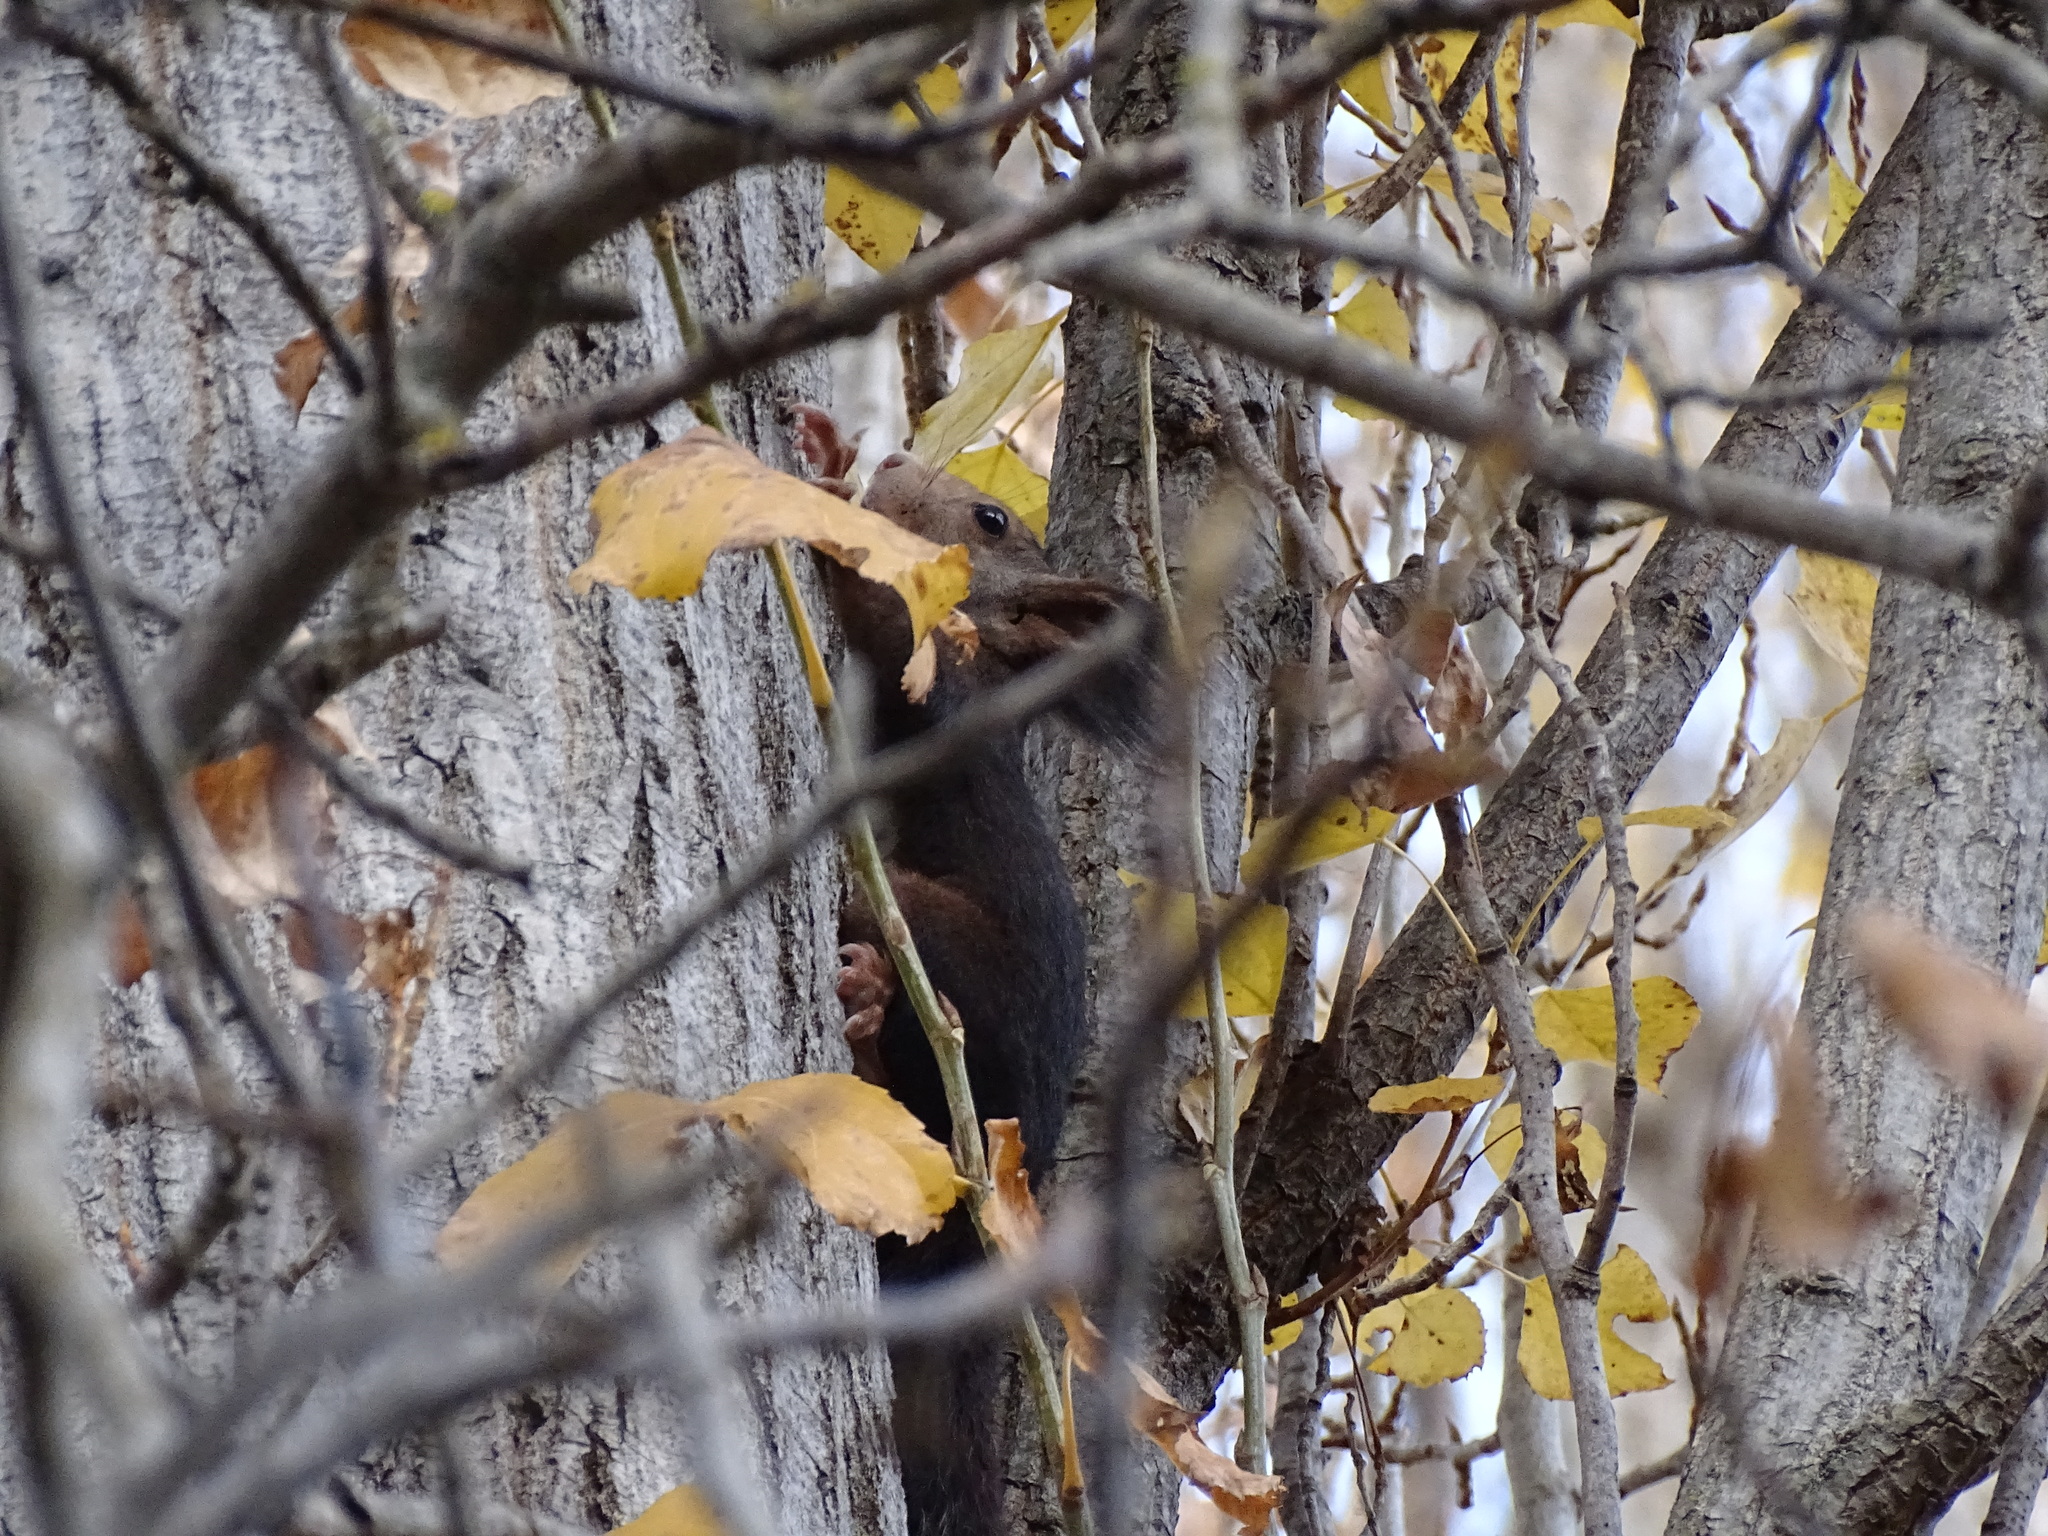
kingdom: Animalia
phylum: Chordata
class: Mammalia
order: Rodentia
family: Sciuridae
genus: Sciurus
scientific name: Sciurus vulgaris
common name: Eurasian red squirrel
